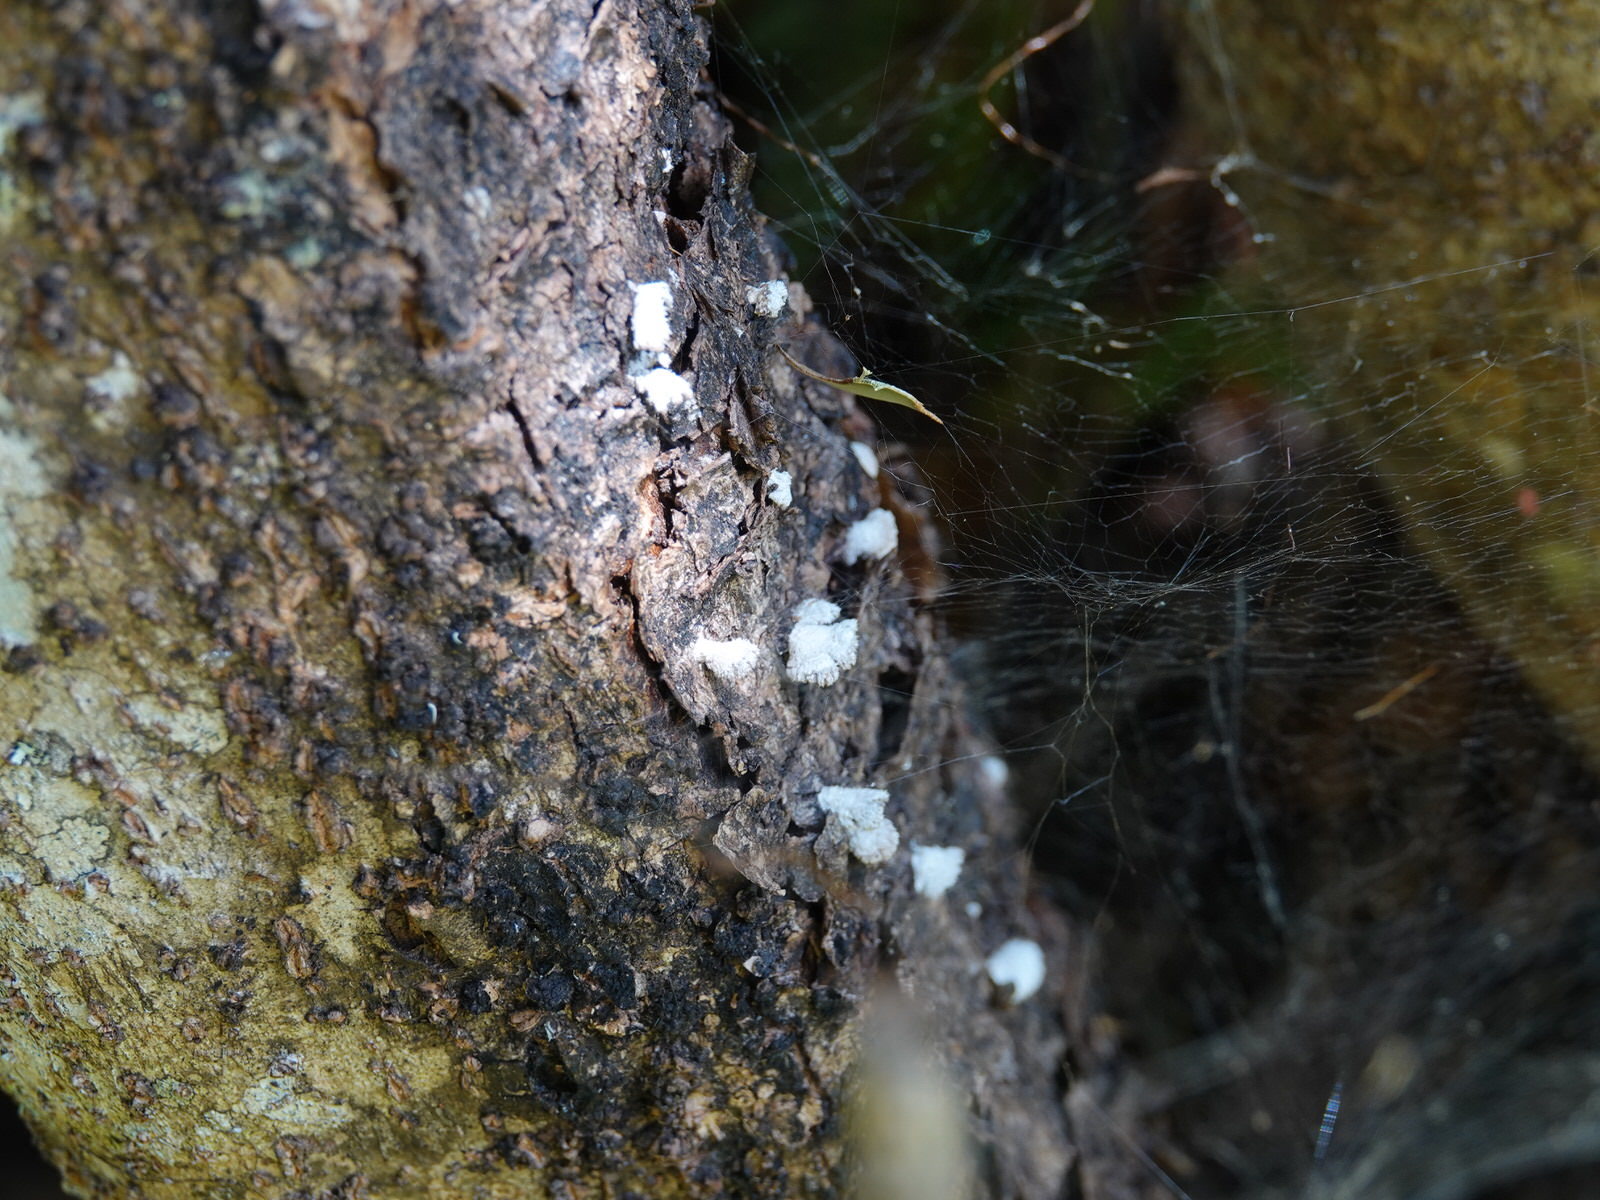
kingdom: Fungi
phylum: Basidiomycota
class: Agaricomycetes
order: Agaricales
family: Schizophyllaceae
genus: Schizophyllum
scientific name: Schizophyllum commune
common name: Common porecrust
